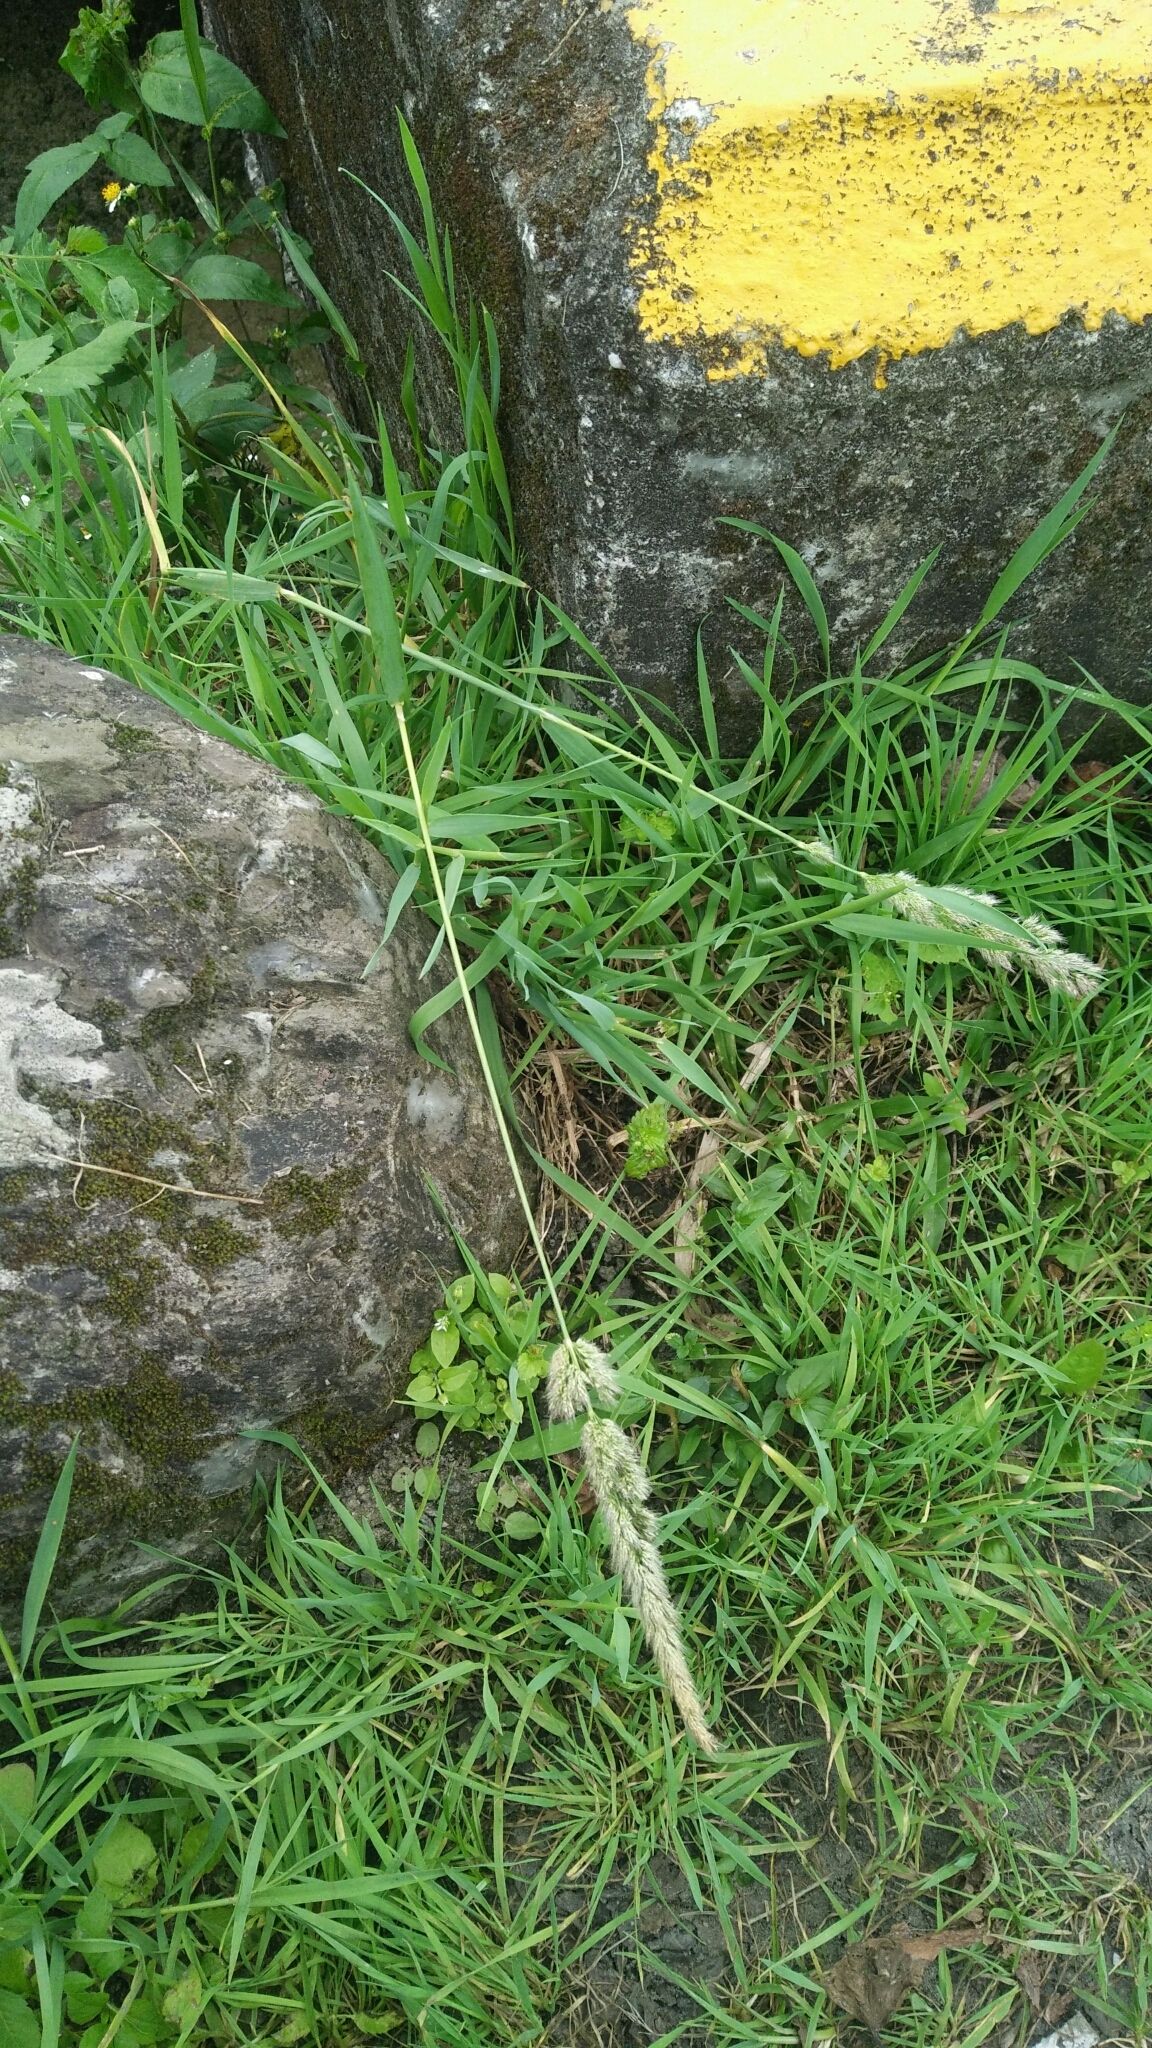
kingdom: Plantae
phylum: Tracheophyta
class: Liliopsida
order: Poales
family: Poaceae
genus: Polypogon
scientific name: Polypogon fugax
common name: Asia minor bluegrass
